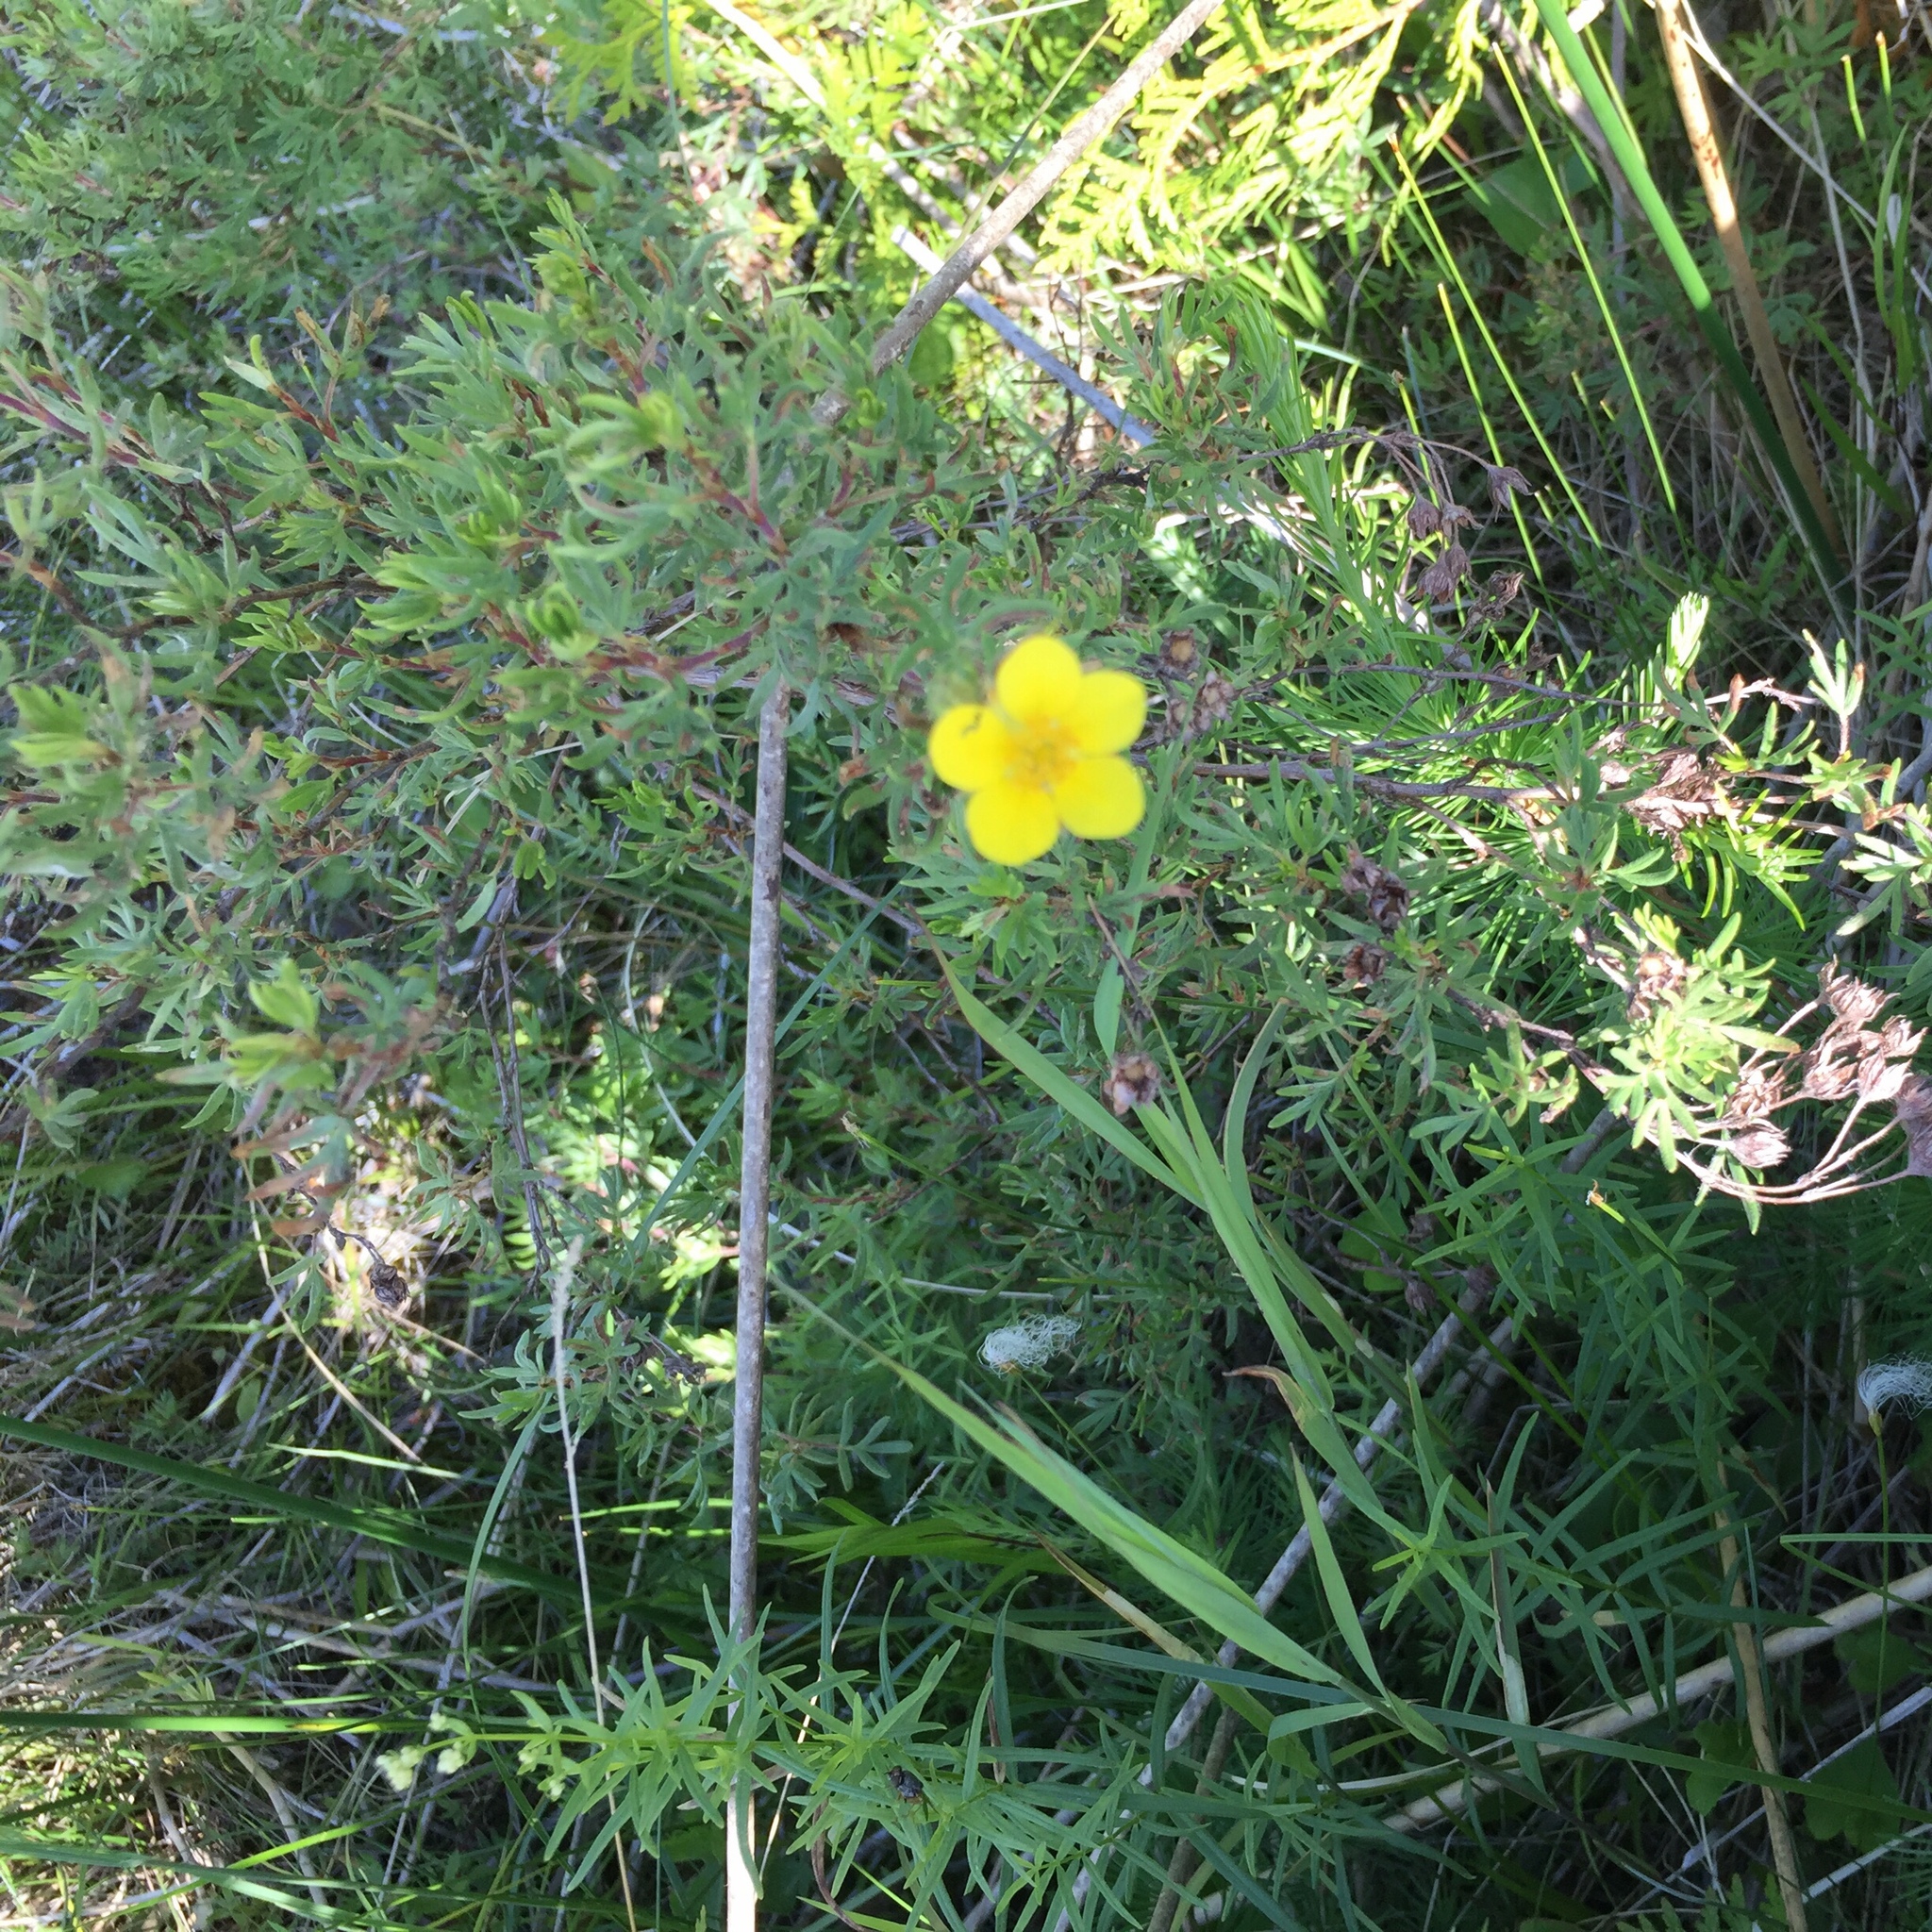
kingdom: Plantae
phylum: Tracheophyta
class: Magnoliopsida
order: Rosales
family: Rosaceae
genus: Dasiphora
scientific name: Dasiphora fruticosa
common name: Shrubby cinquefoil
